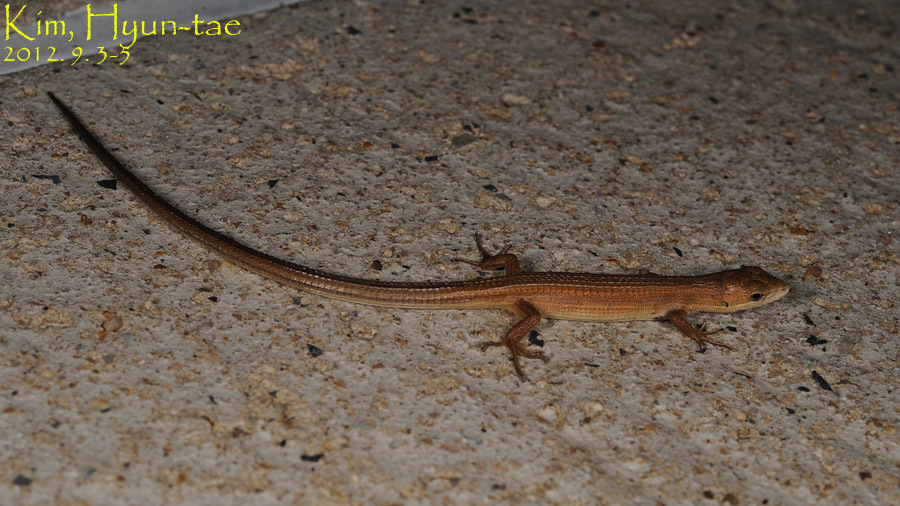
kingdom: Animalia
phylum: Chordata
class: Squamata
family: Lacertidae
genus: Takydromus
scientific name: Takydromus wolteri
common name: Mountain grass lizard
